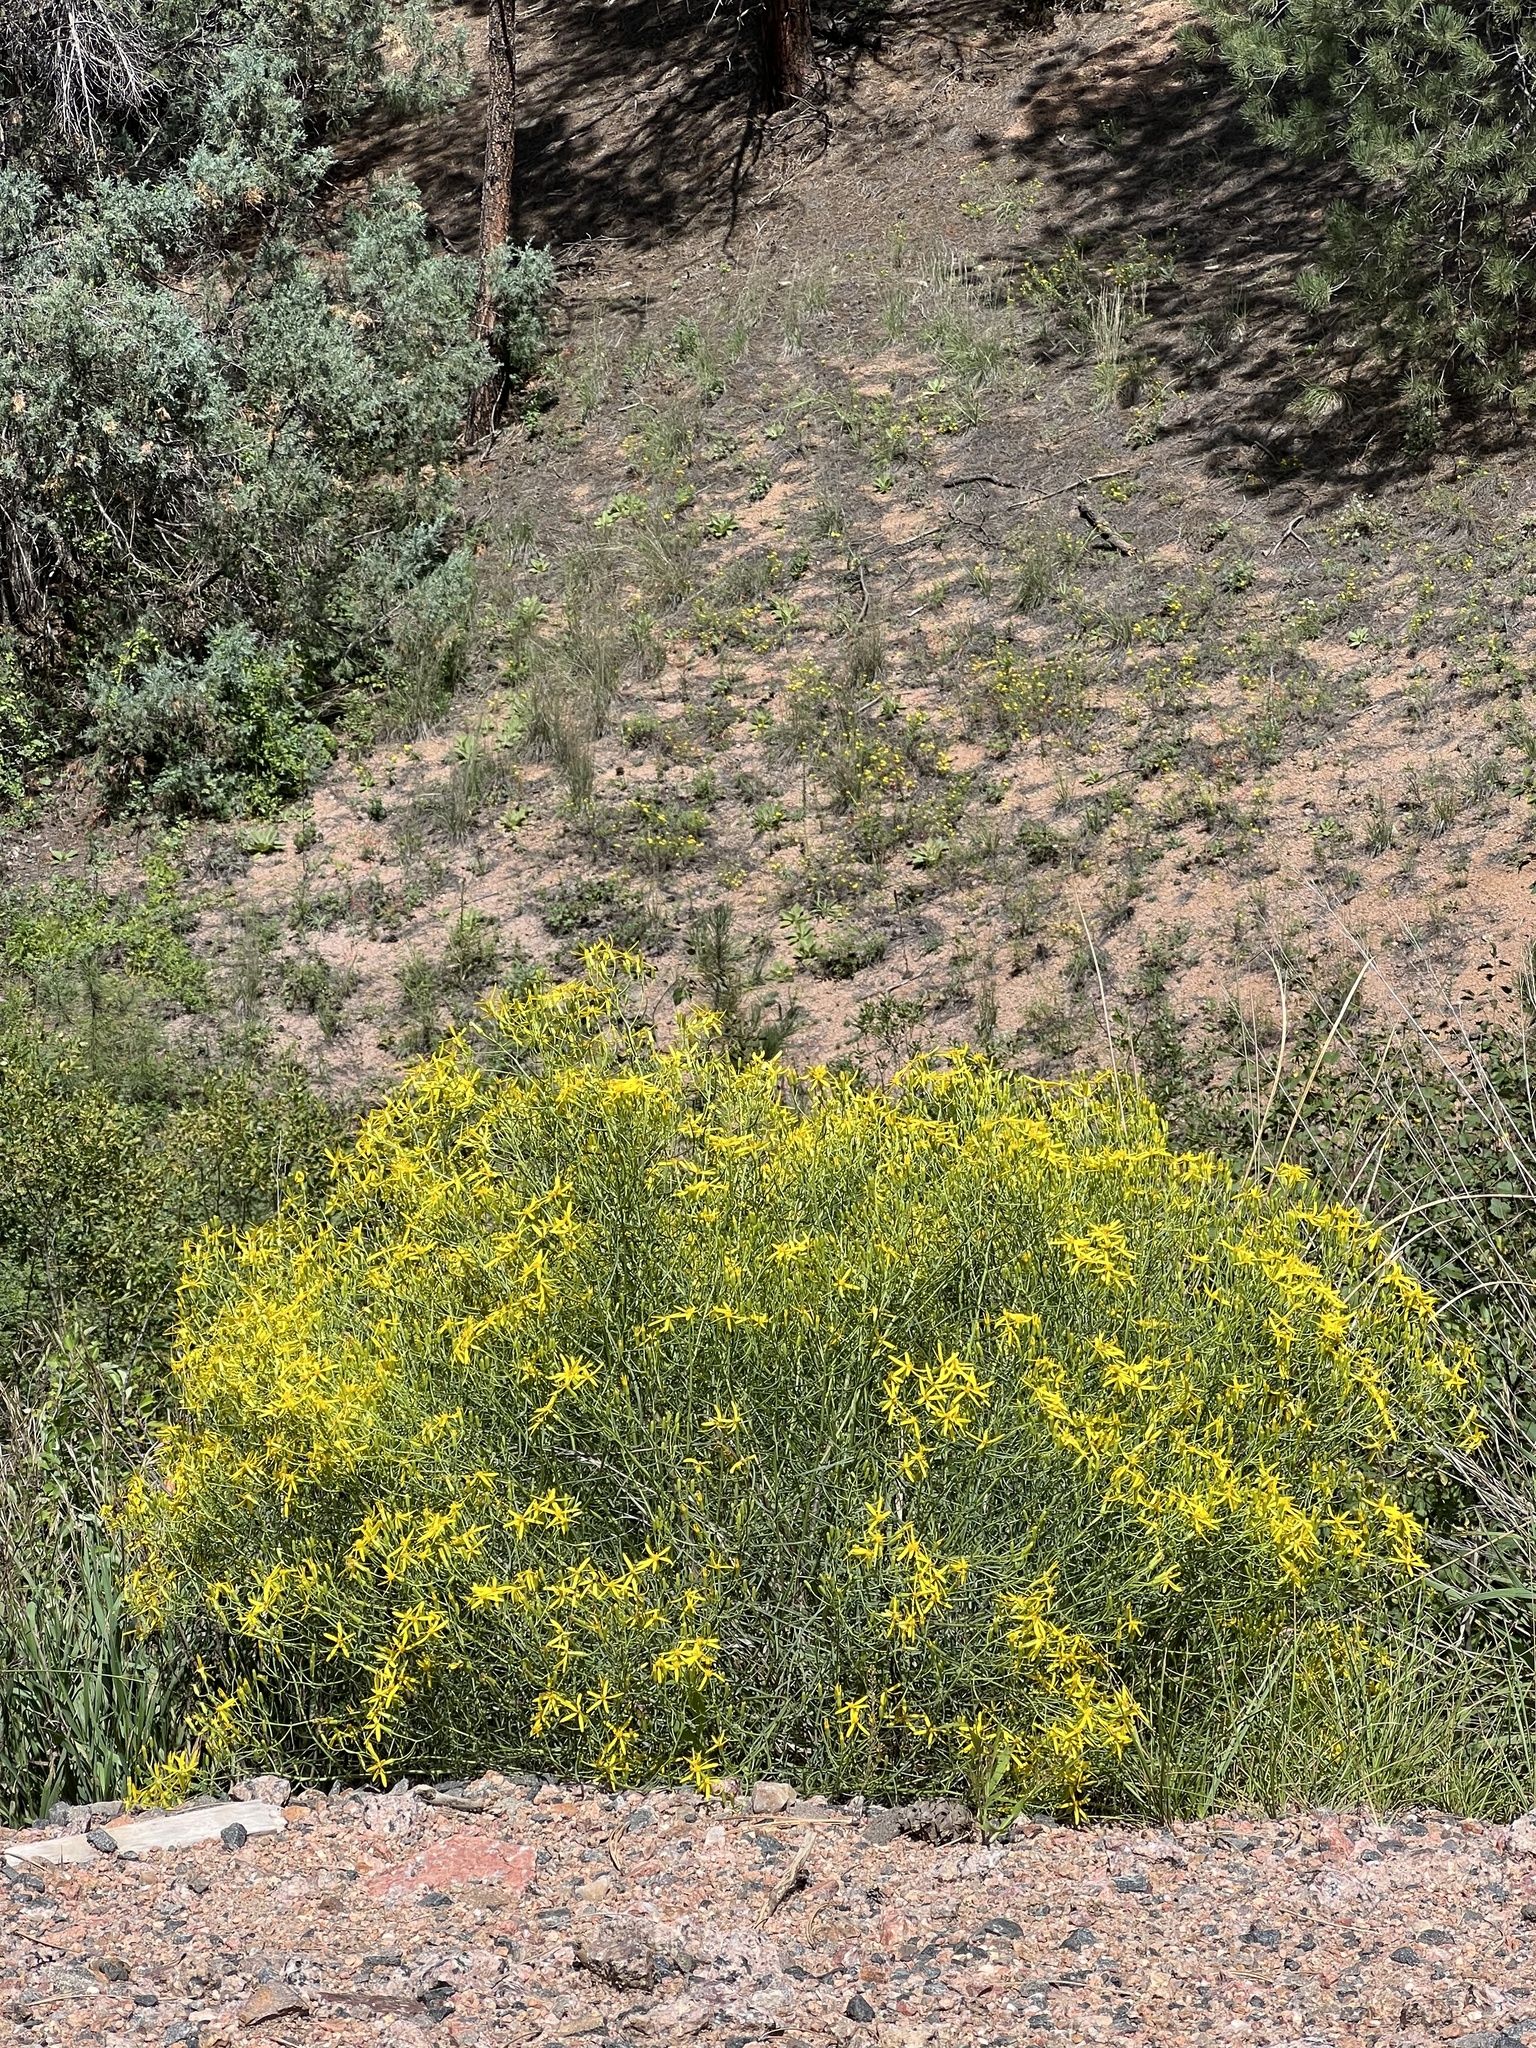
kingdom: Plantae
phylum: Tracheophyta
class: Magnoliopsida
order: Asterales
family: Asteraceae
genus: Senecio
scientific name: Senecio spartioides
